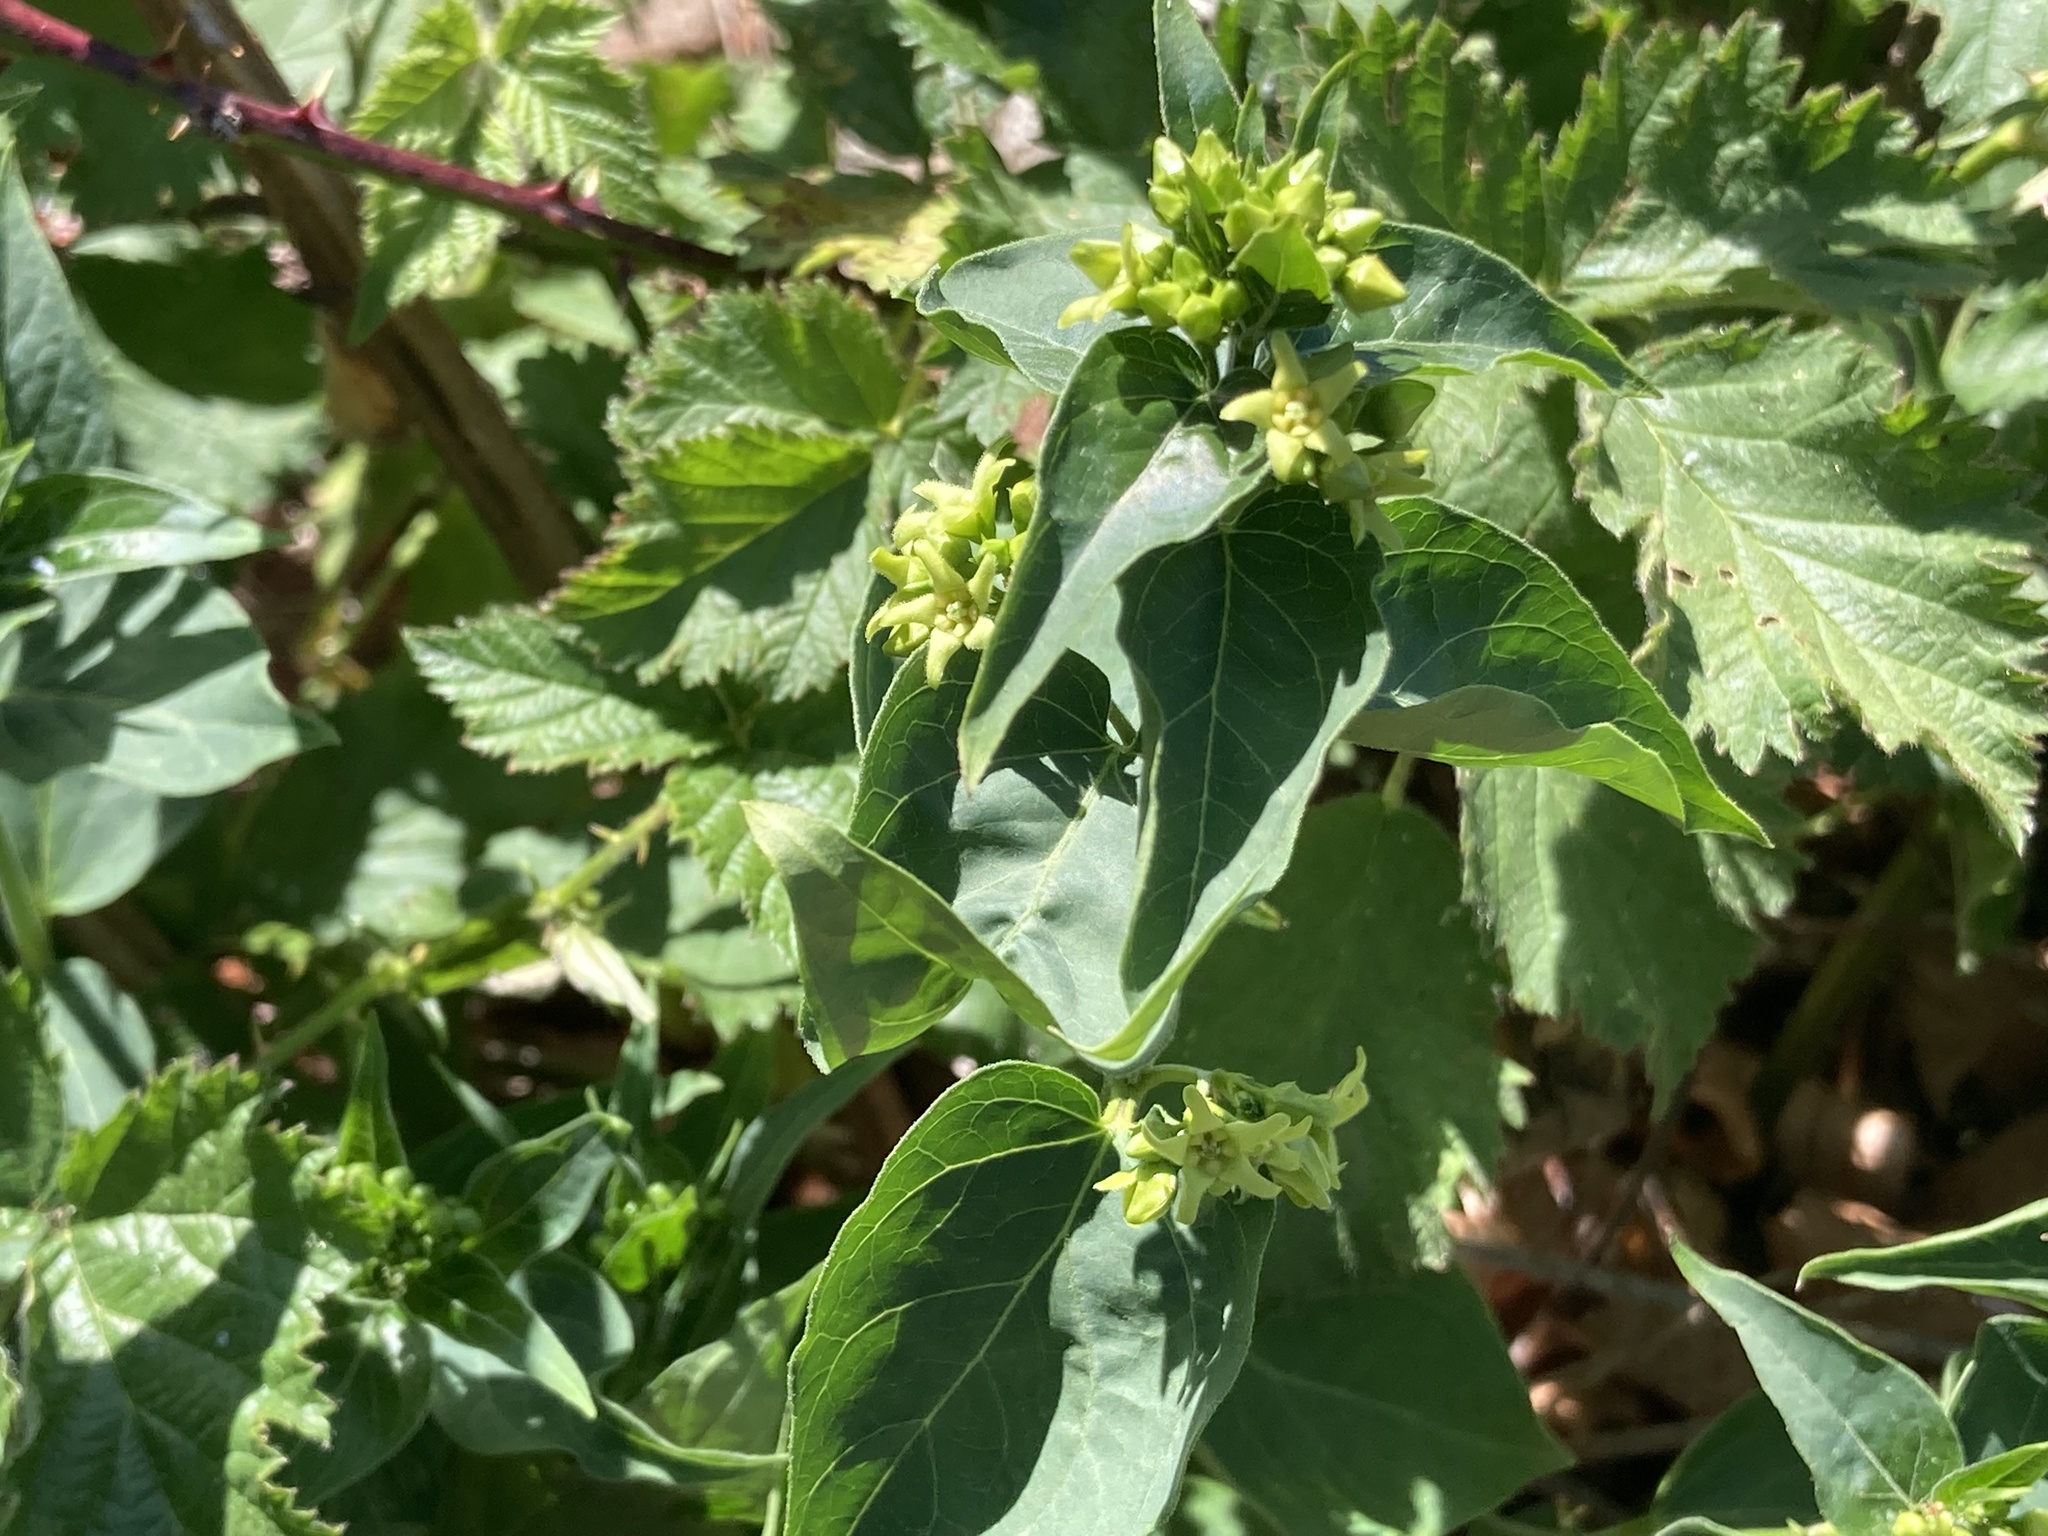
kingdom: Plantae
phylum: Tracheophyta
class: Magnoliopsida
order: Gentianales
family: Apocynaceae
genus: Vincetoxicum
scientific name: Vincetoxicum hirundinaria
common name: White swallowwort
